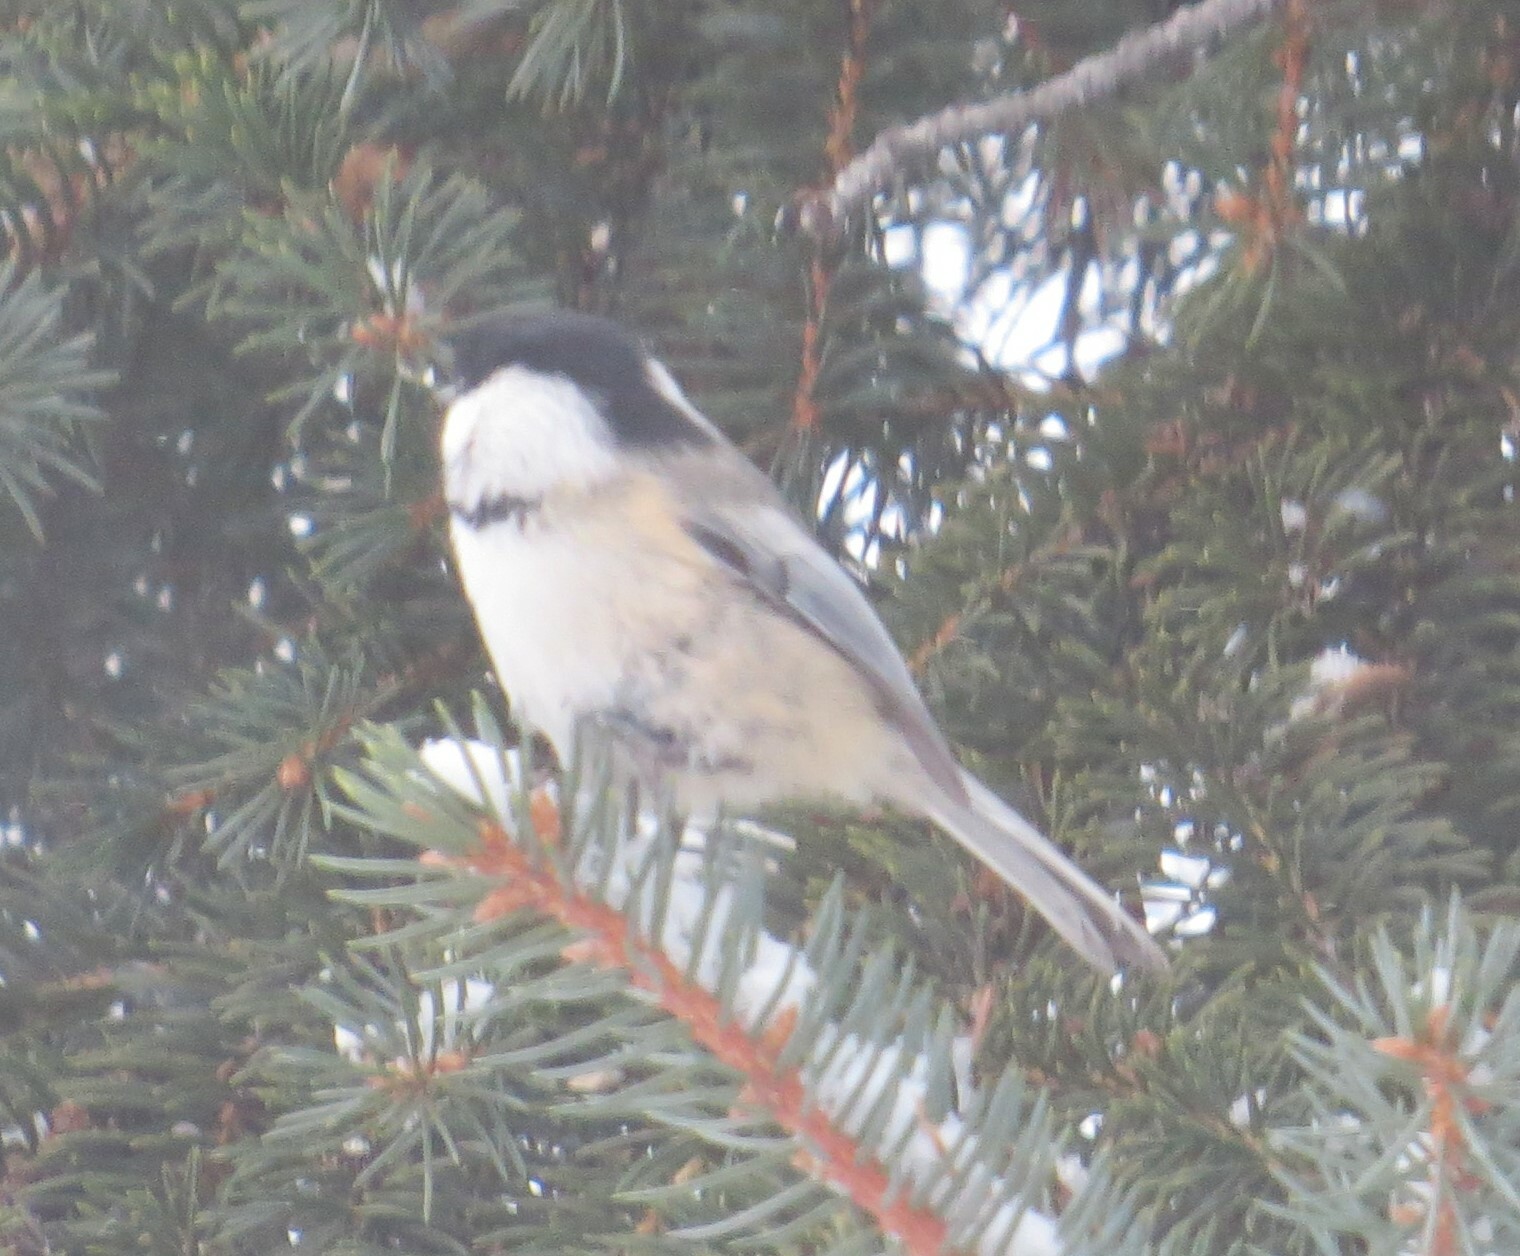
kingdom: Animalia
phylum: Chordata
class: Aves
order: Passeriformes
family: Paridae
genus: Poecile
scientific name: Poecile atricapillus
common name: Black-capped chickadee
